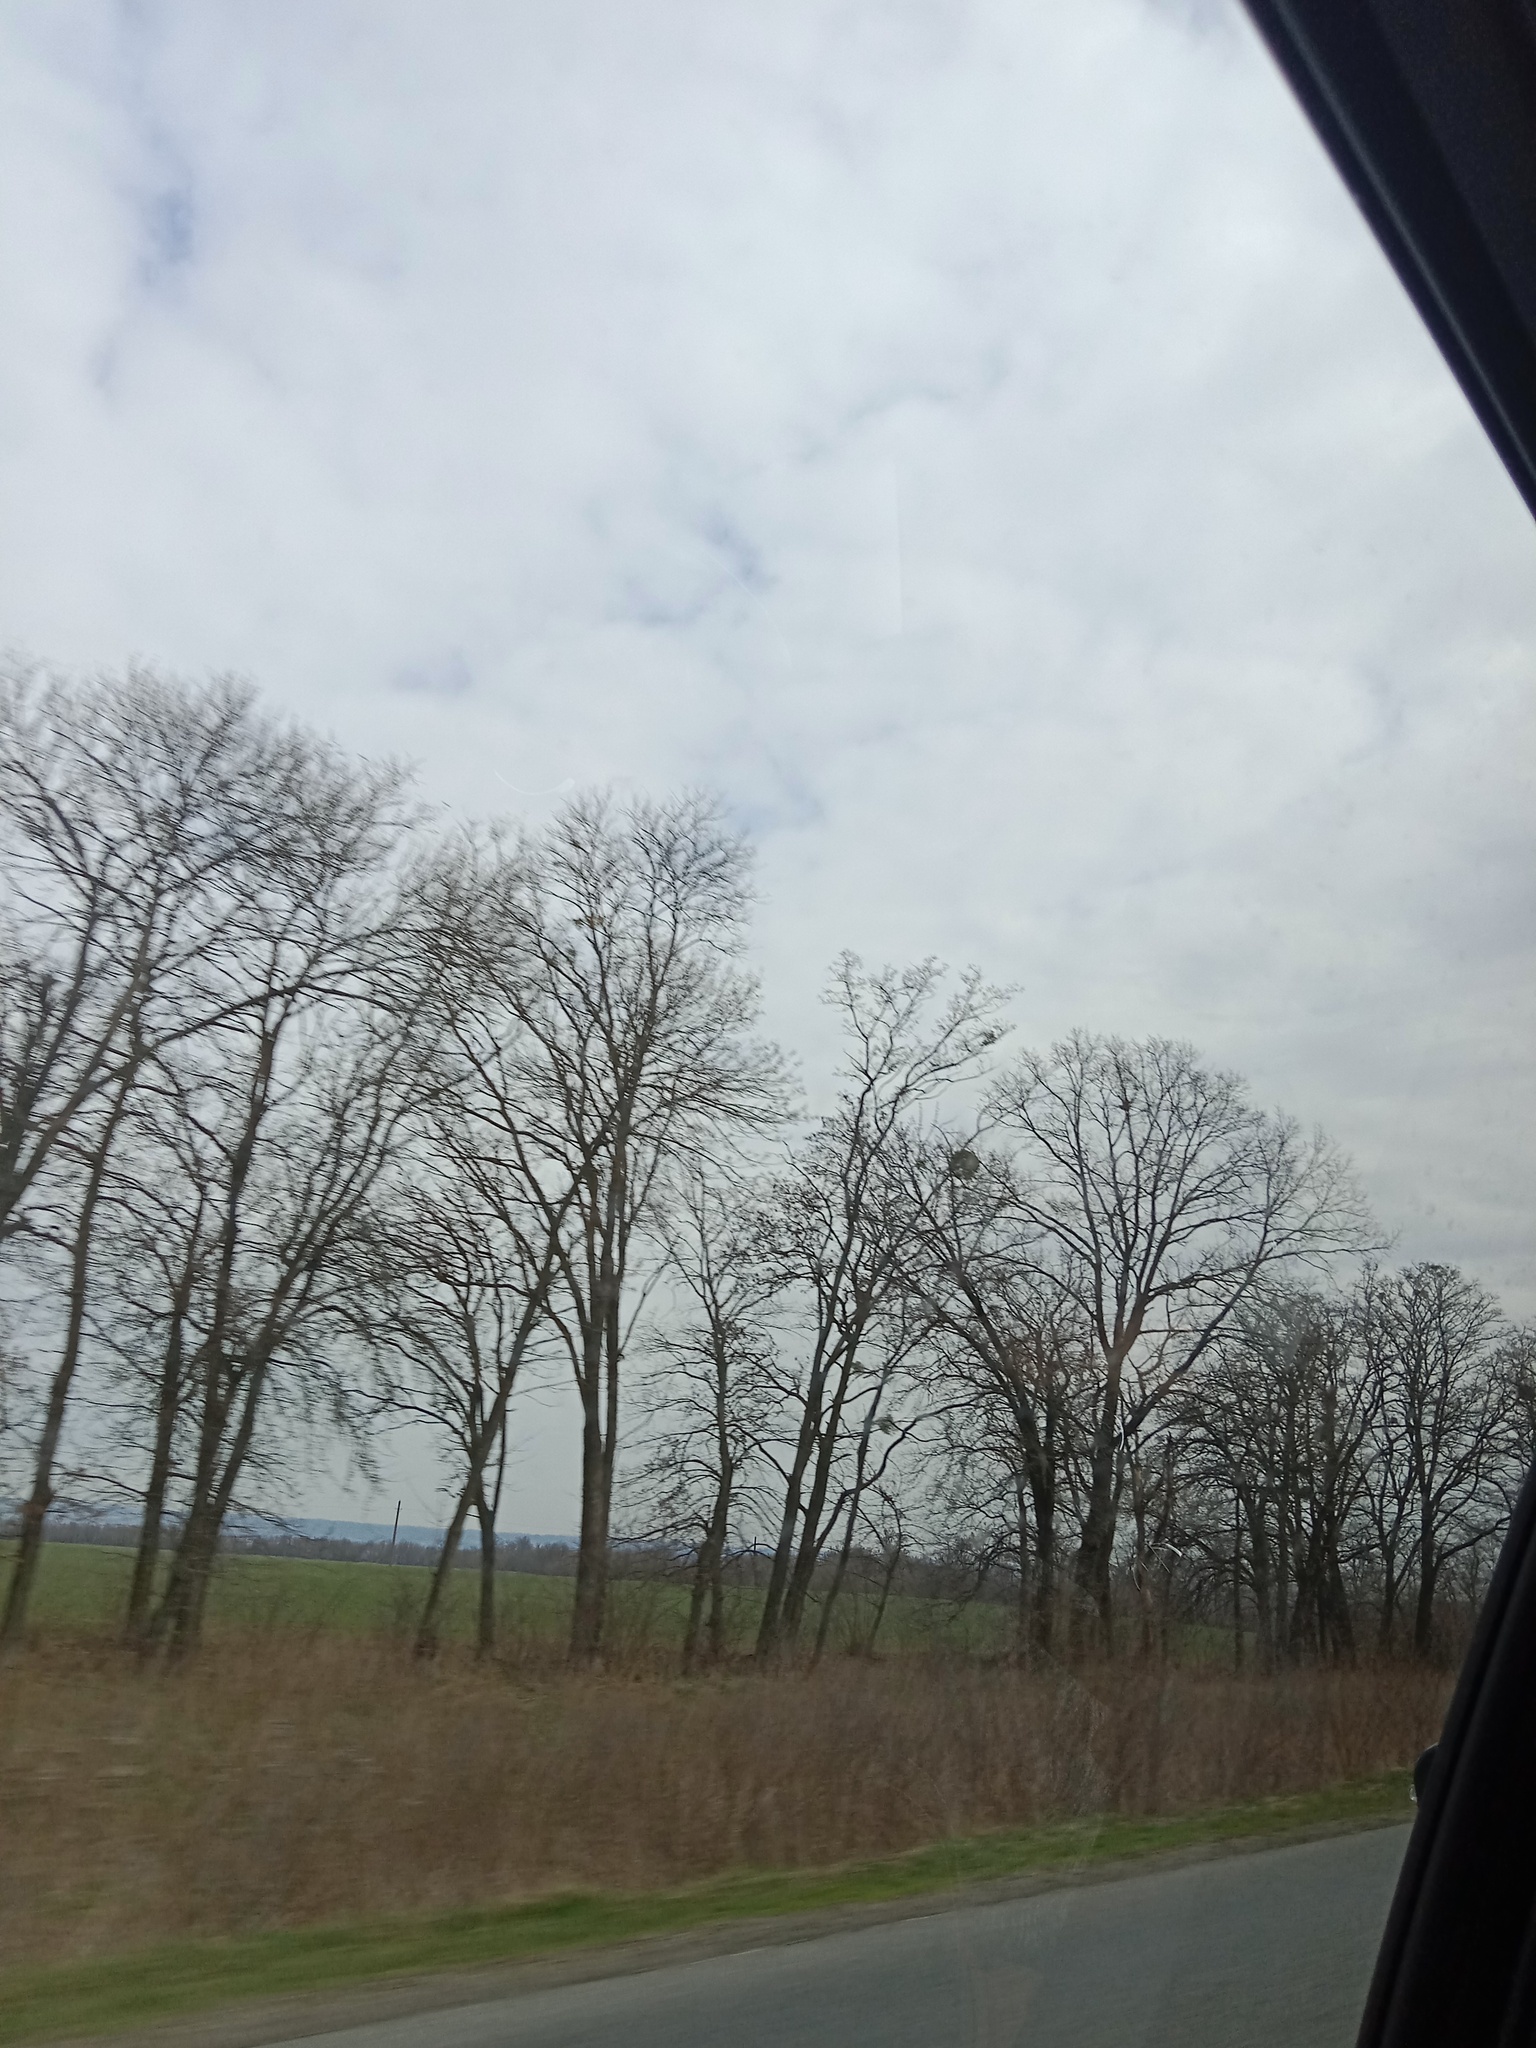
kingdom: Plantae
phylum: Tracheophyta
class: Magnoliopsida
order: Santalales
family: Viscaceae
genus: Viscum
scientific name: Viscum album
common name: Mistletoe
